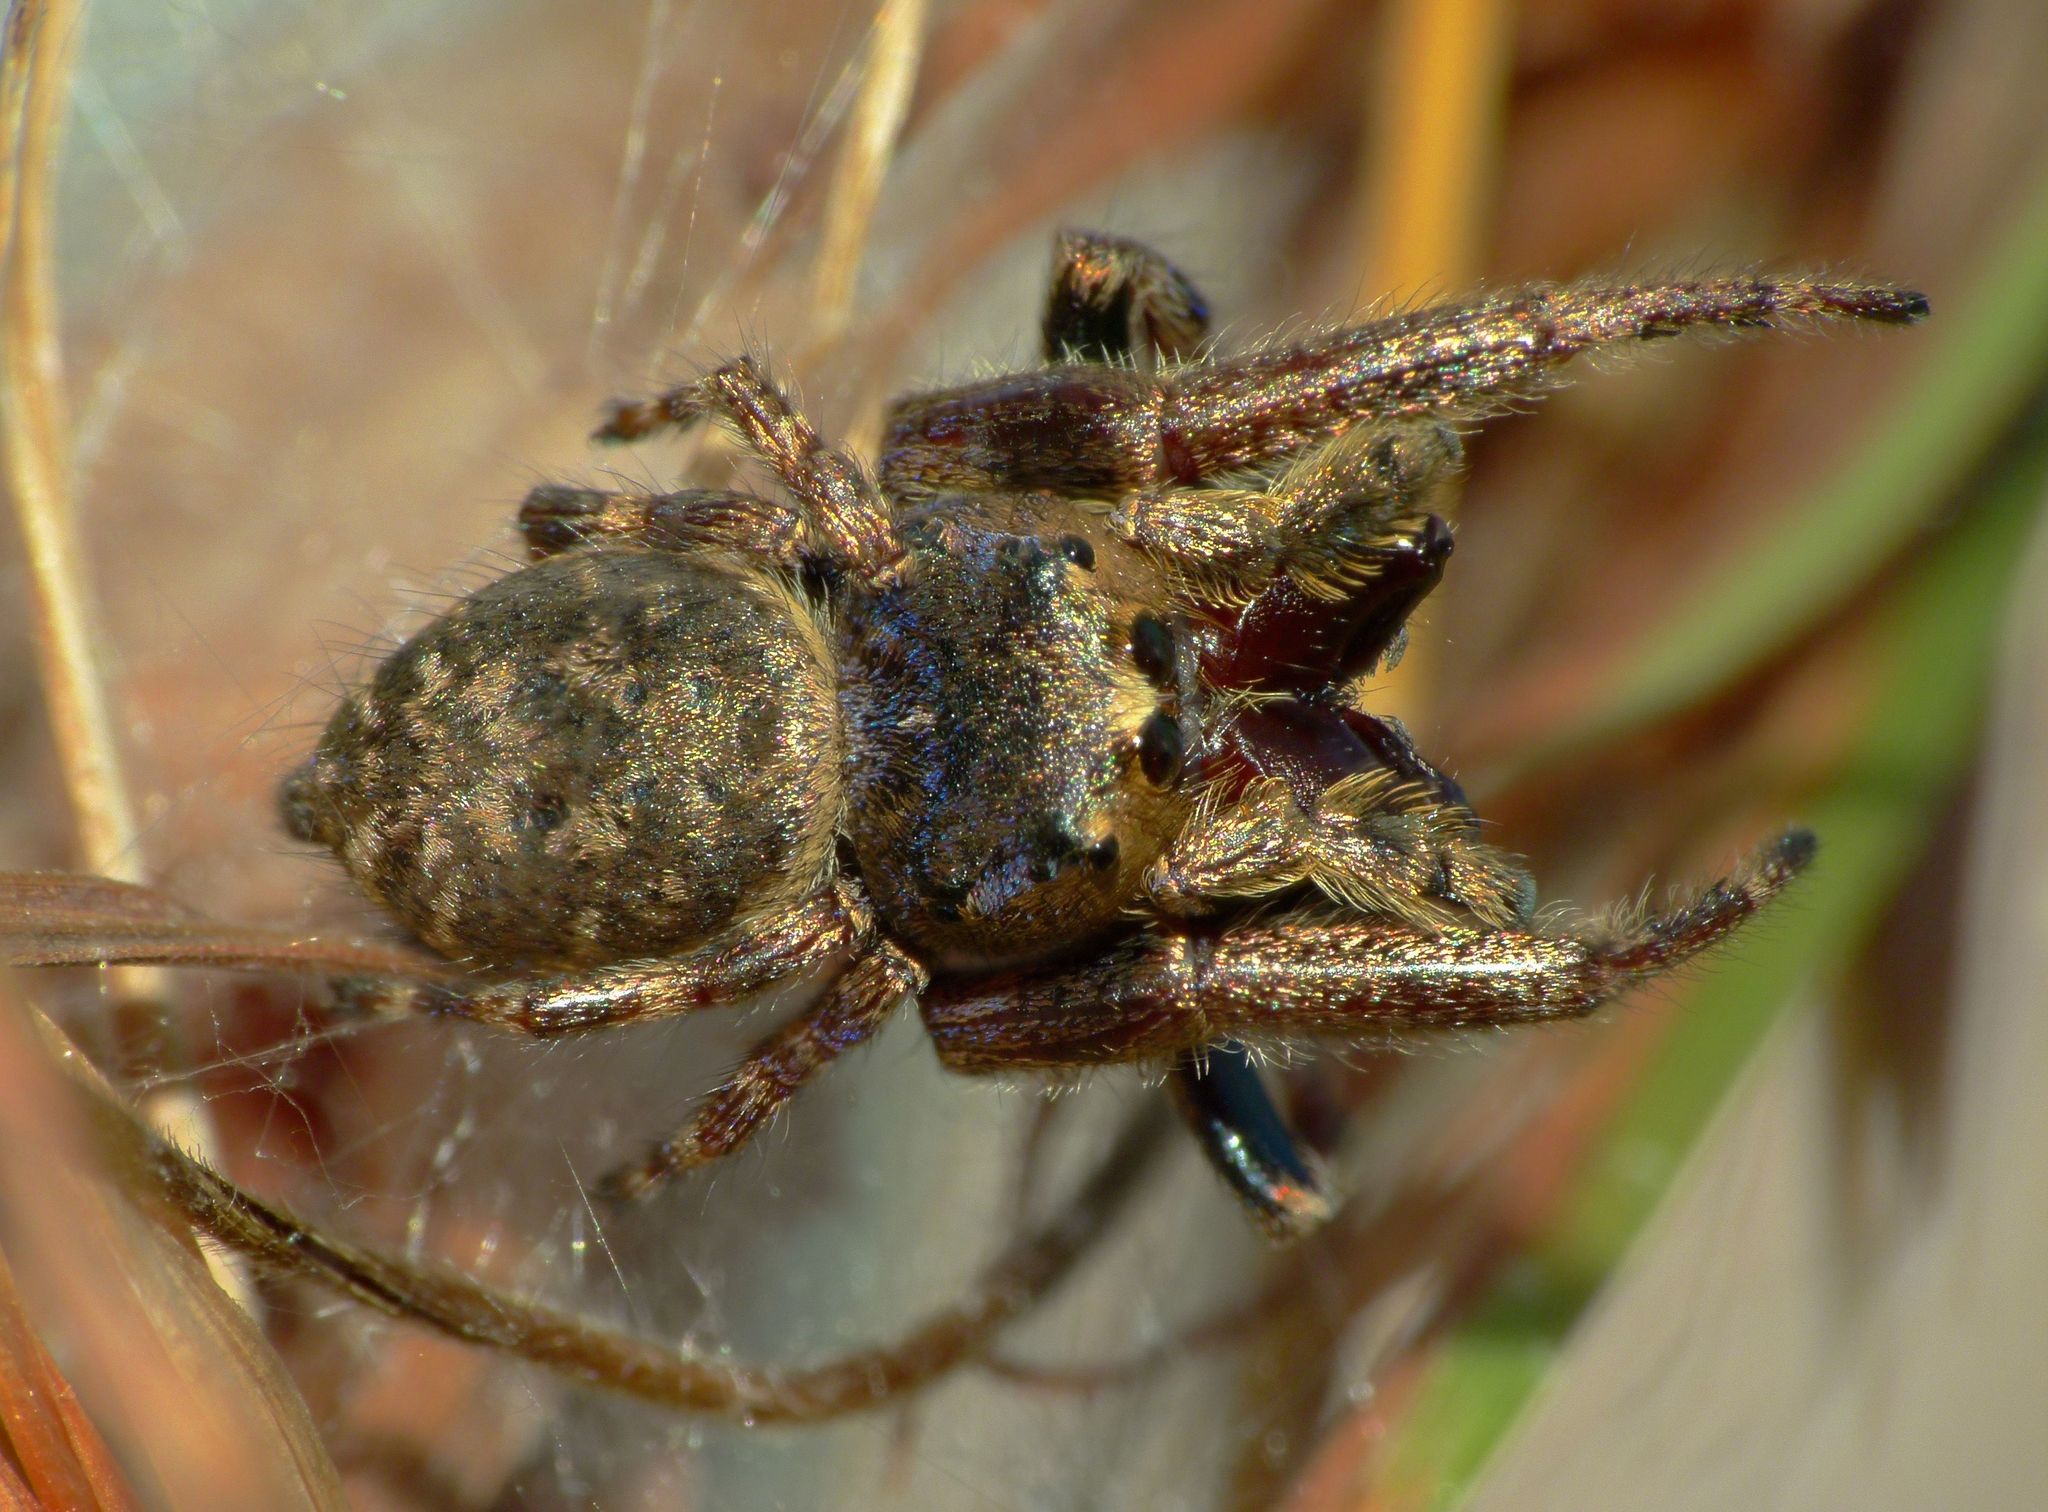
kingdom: Animalia
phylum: Arthropoda
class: Arachnida
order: Araneae
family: Salticidae
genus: Simaetha
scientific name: Simaetha thoracica
